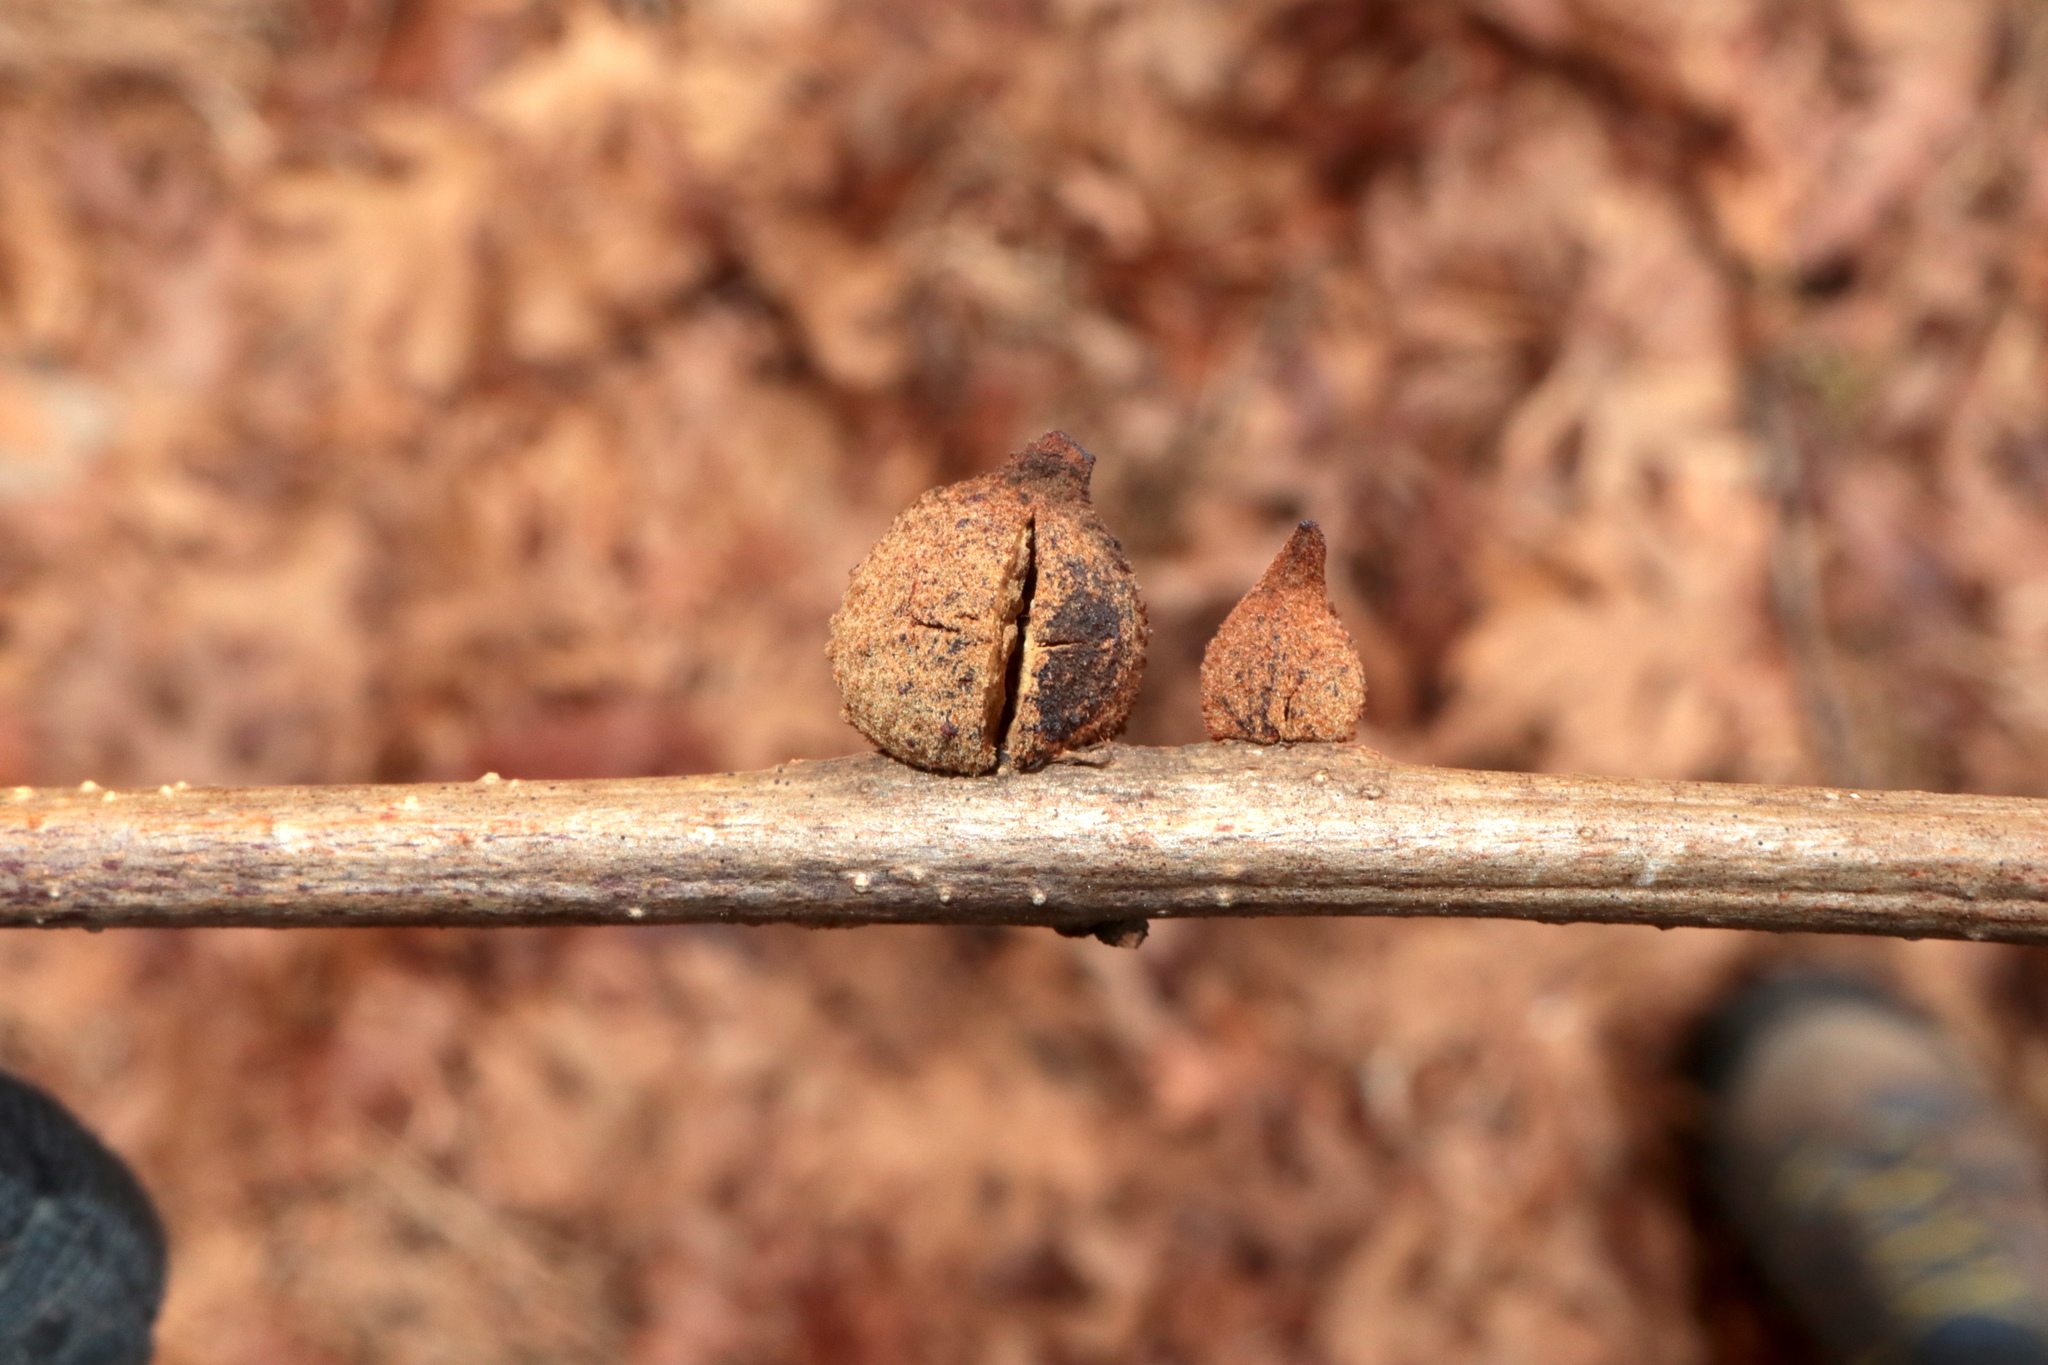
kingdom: Animalia
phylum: Arthropoda
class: Insecta
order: Hymenoptera
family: Cynipidae
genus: Disholcaspis
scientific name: Disholcaspis
